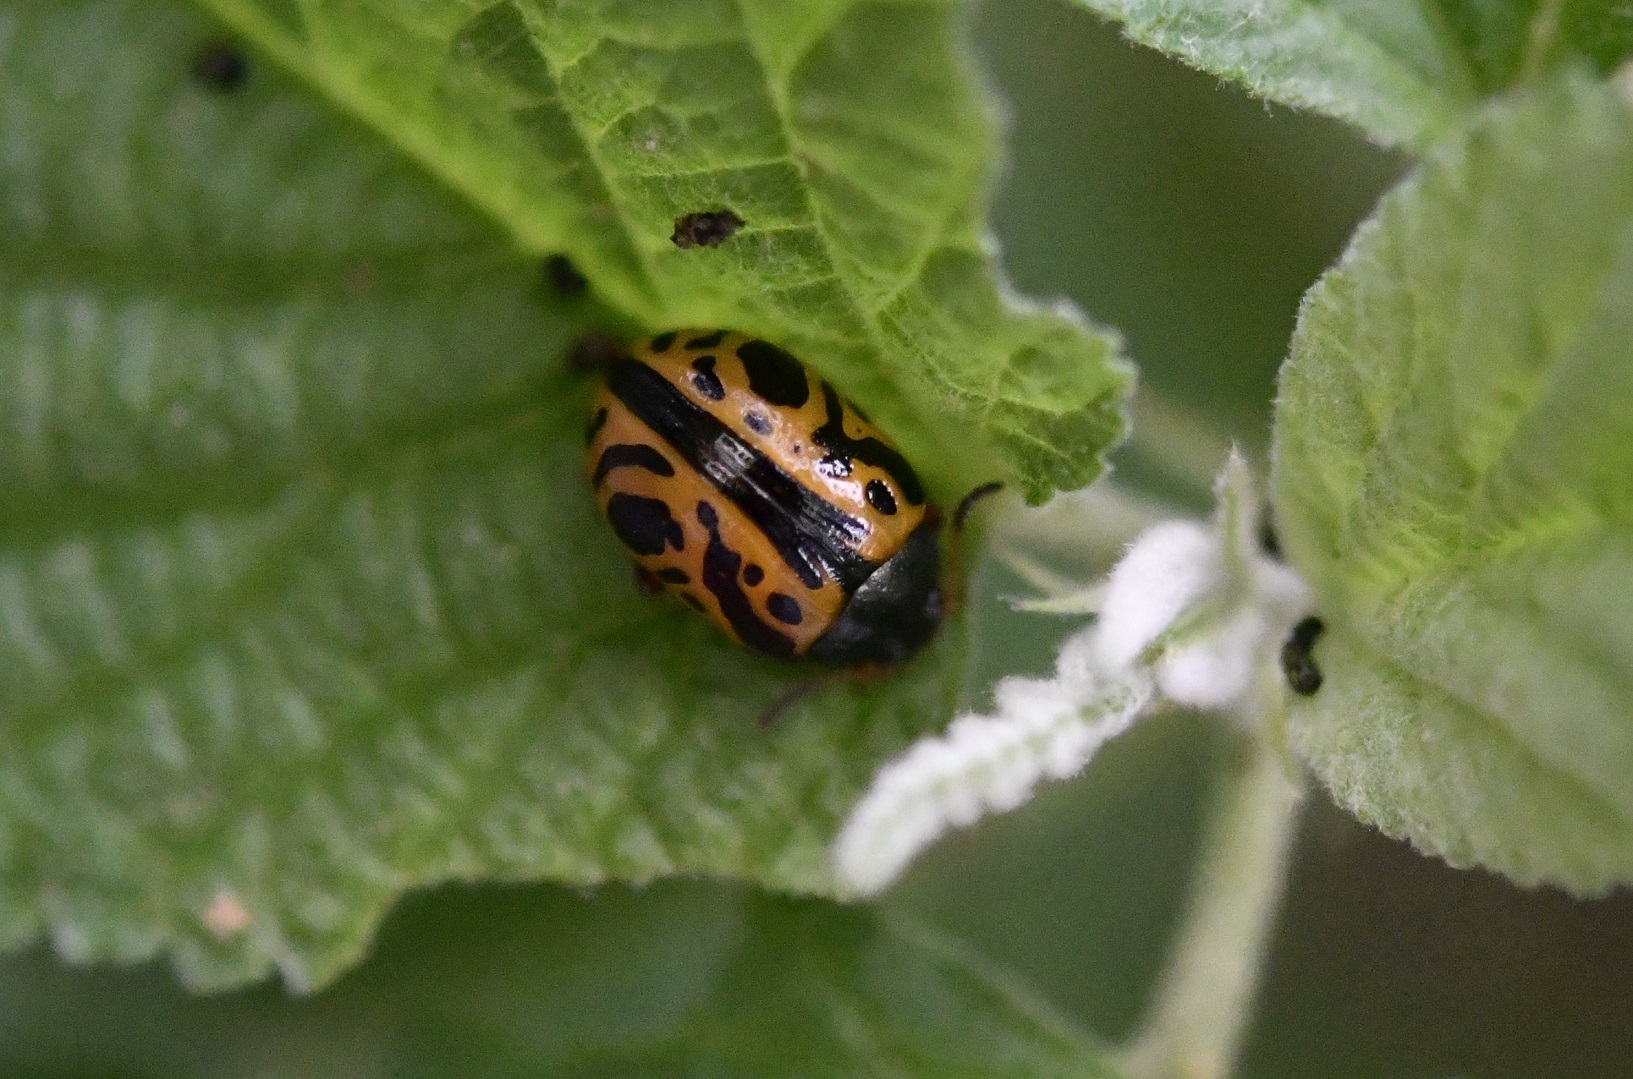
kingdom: Animalia
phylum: Arthropoda
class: Insecta
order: Coleoptera
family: Chrysomelidae
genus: Calligrapha
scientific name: Calligrapha fulvipes
